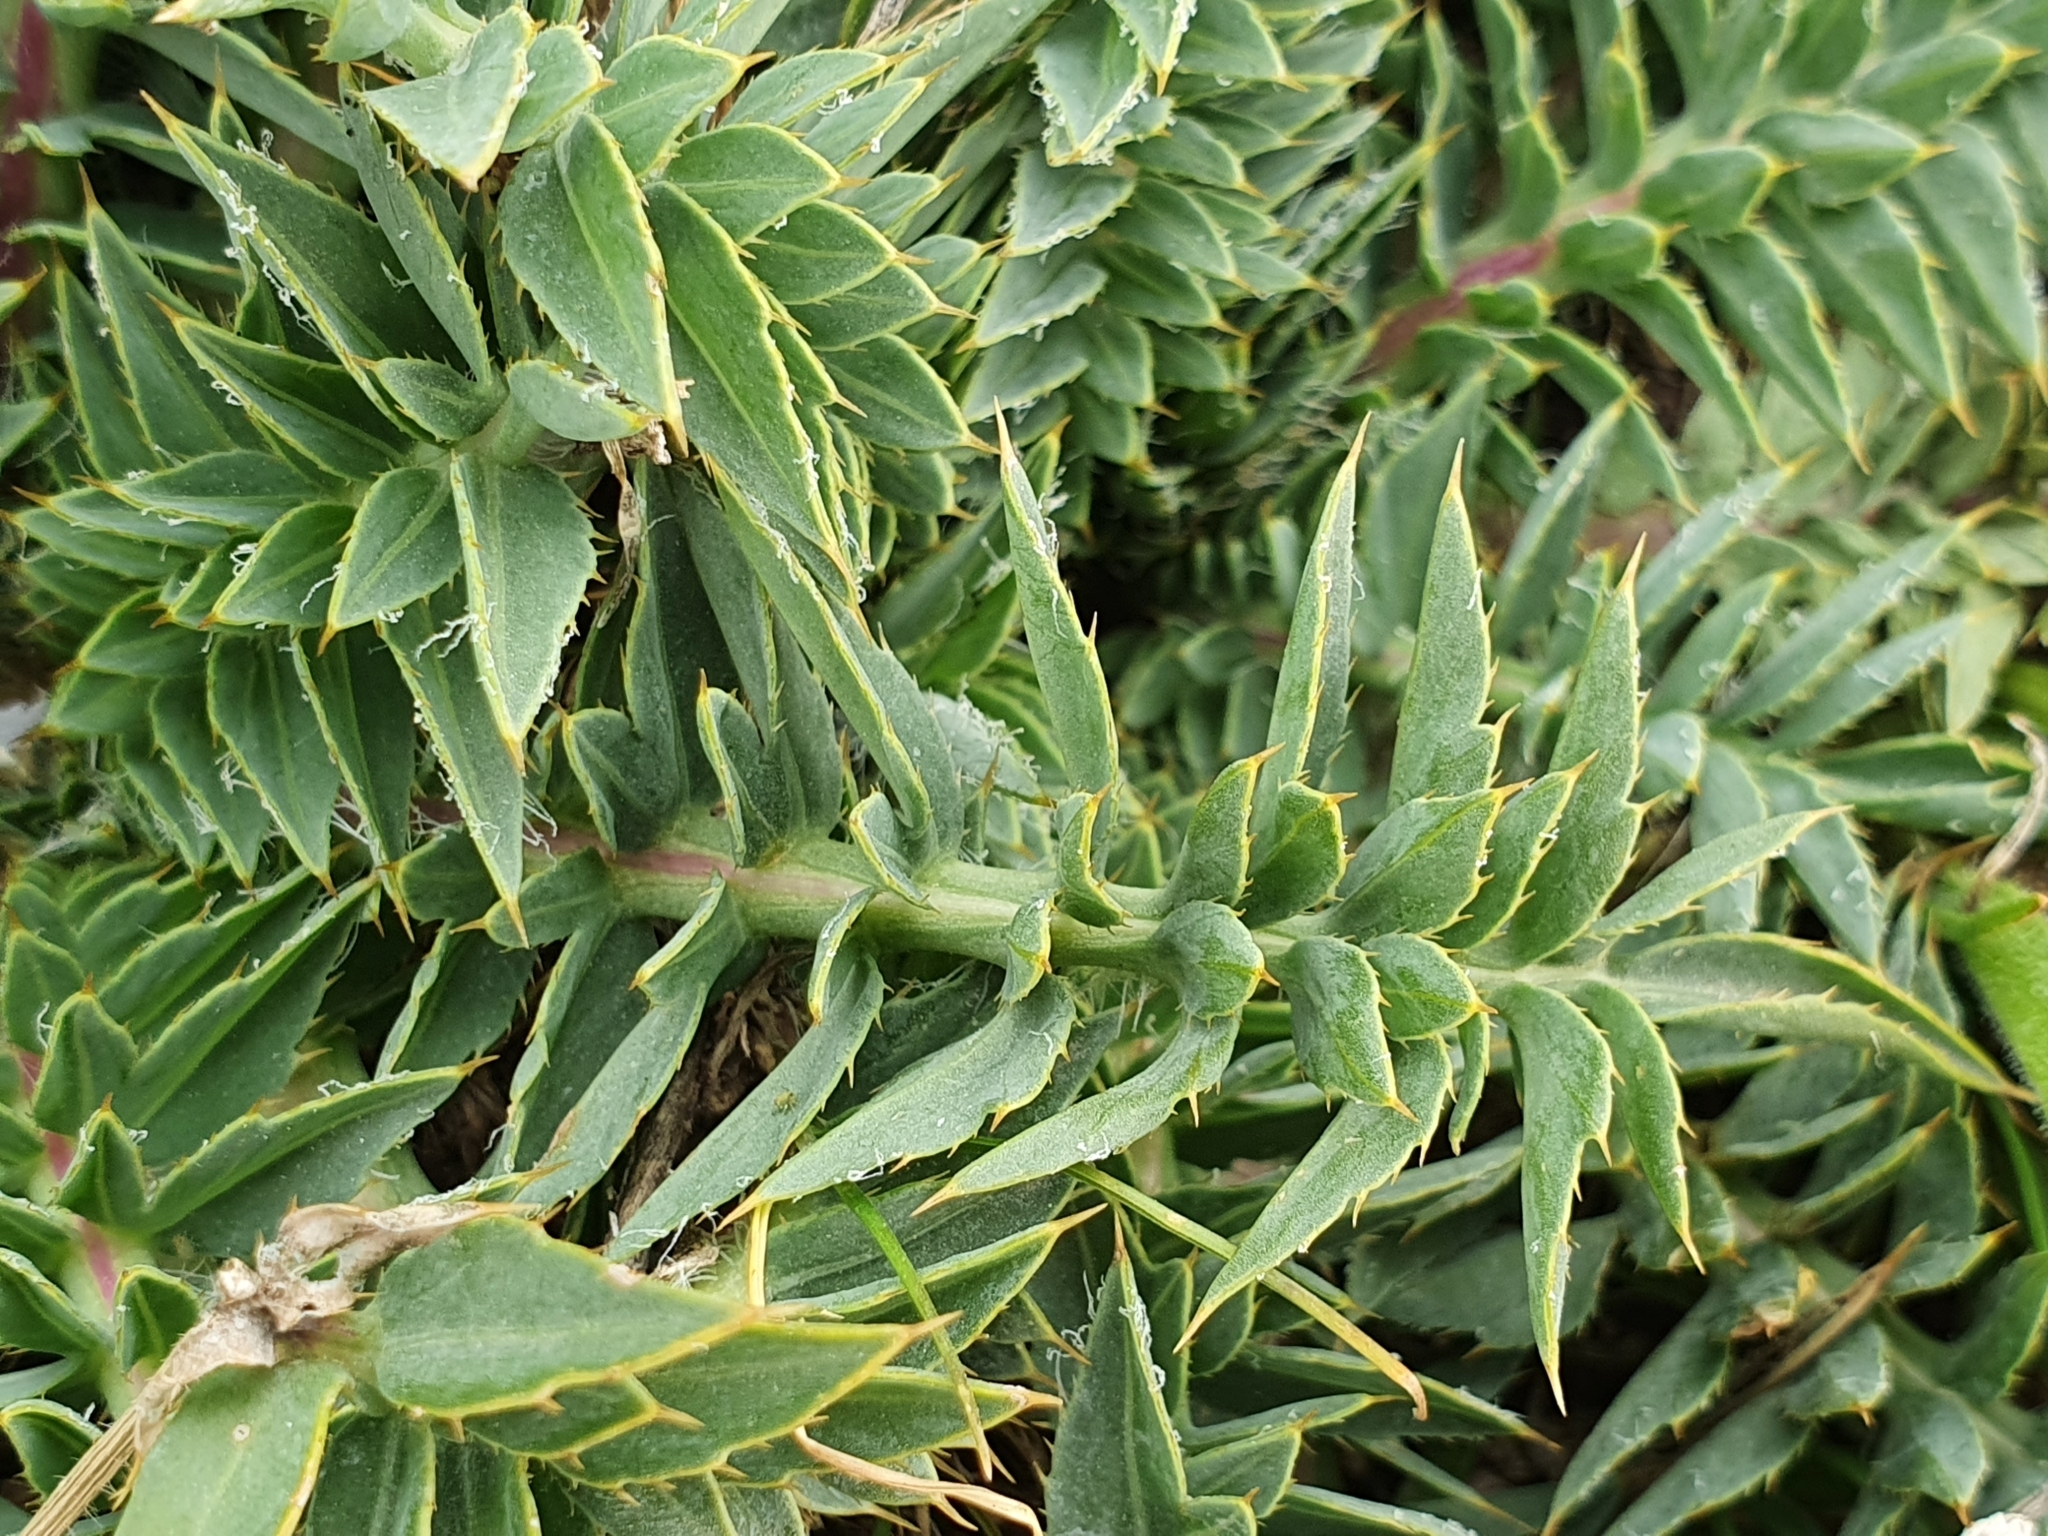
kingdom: Plantae
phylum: Tracheophyta
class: Magnoliopsida
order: Asterales
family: Asteraceae
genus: Carduncellus
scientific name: Carduncellus
